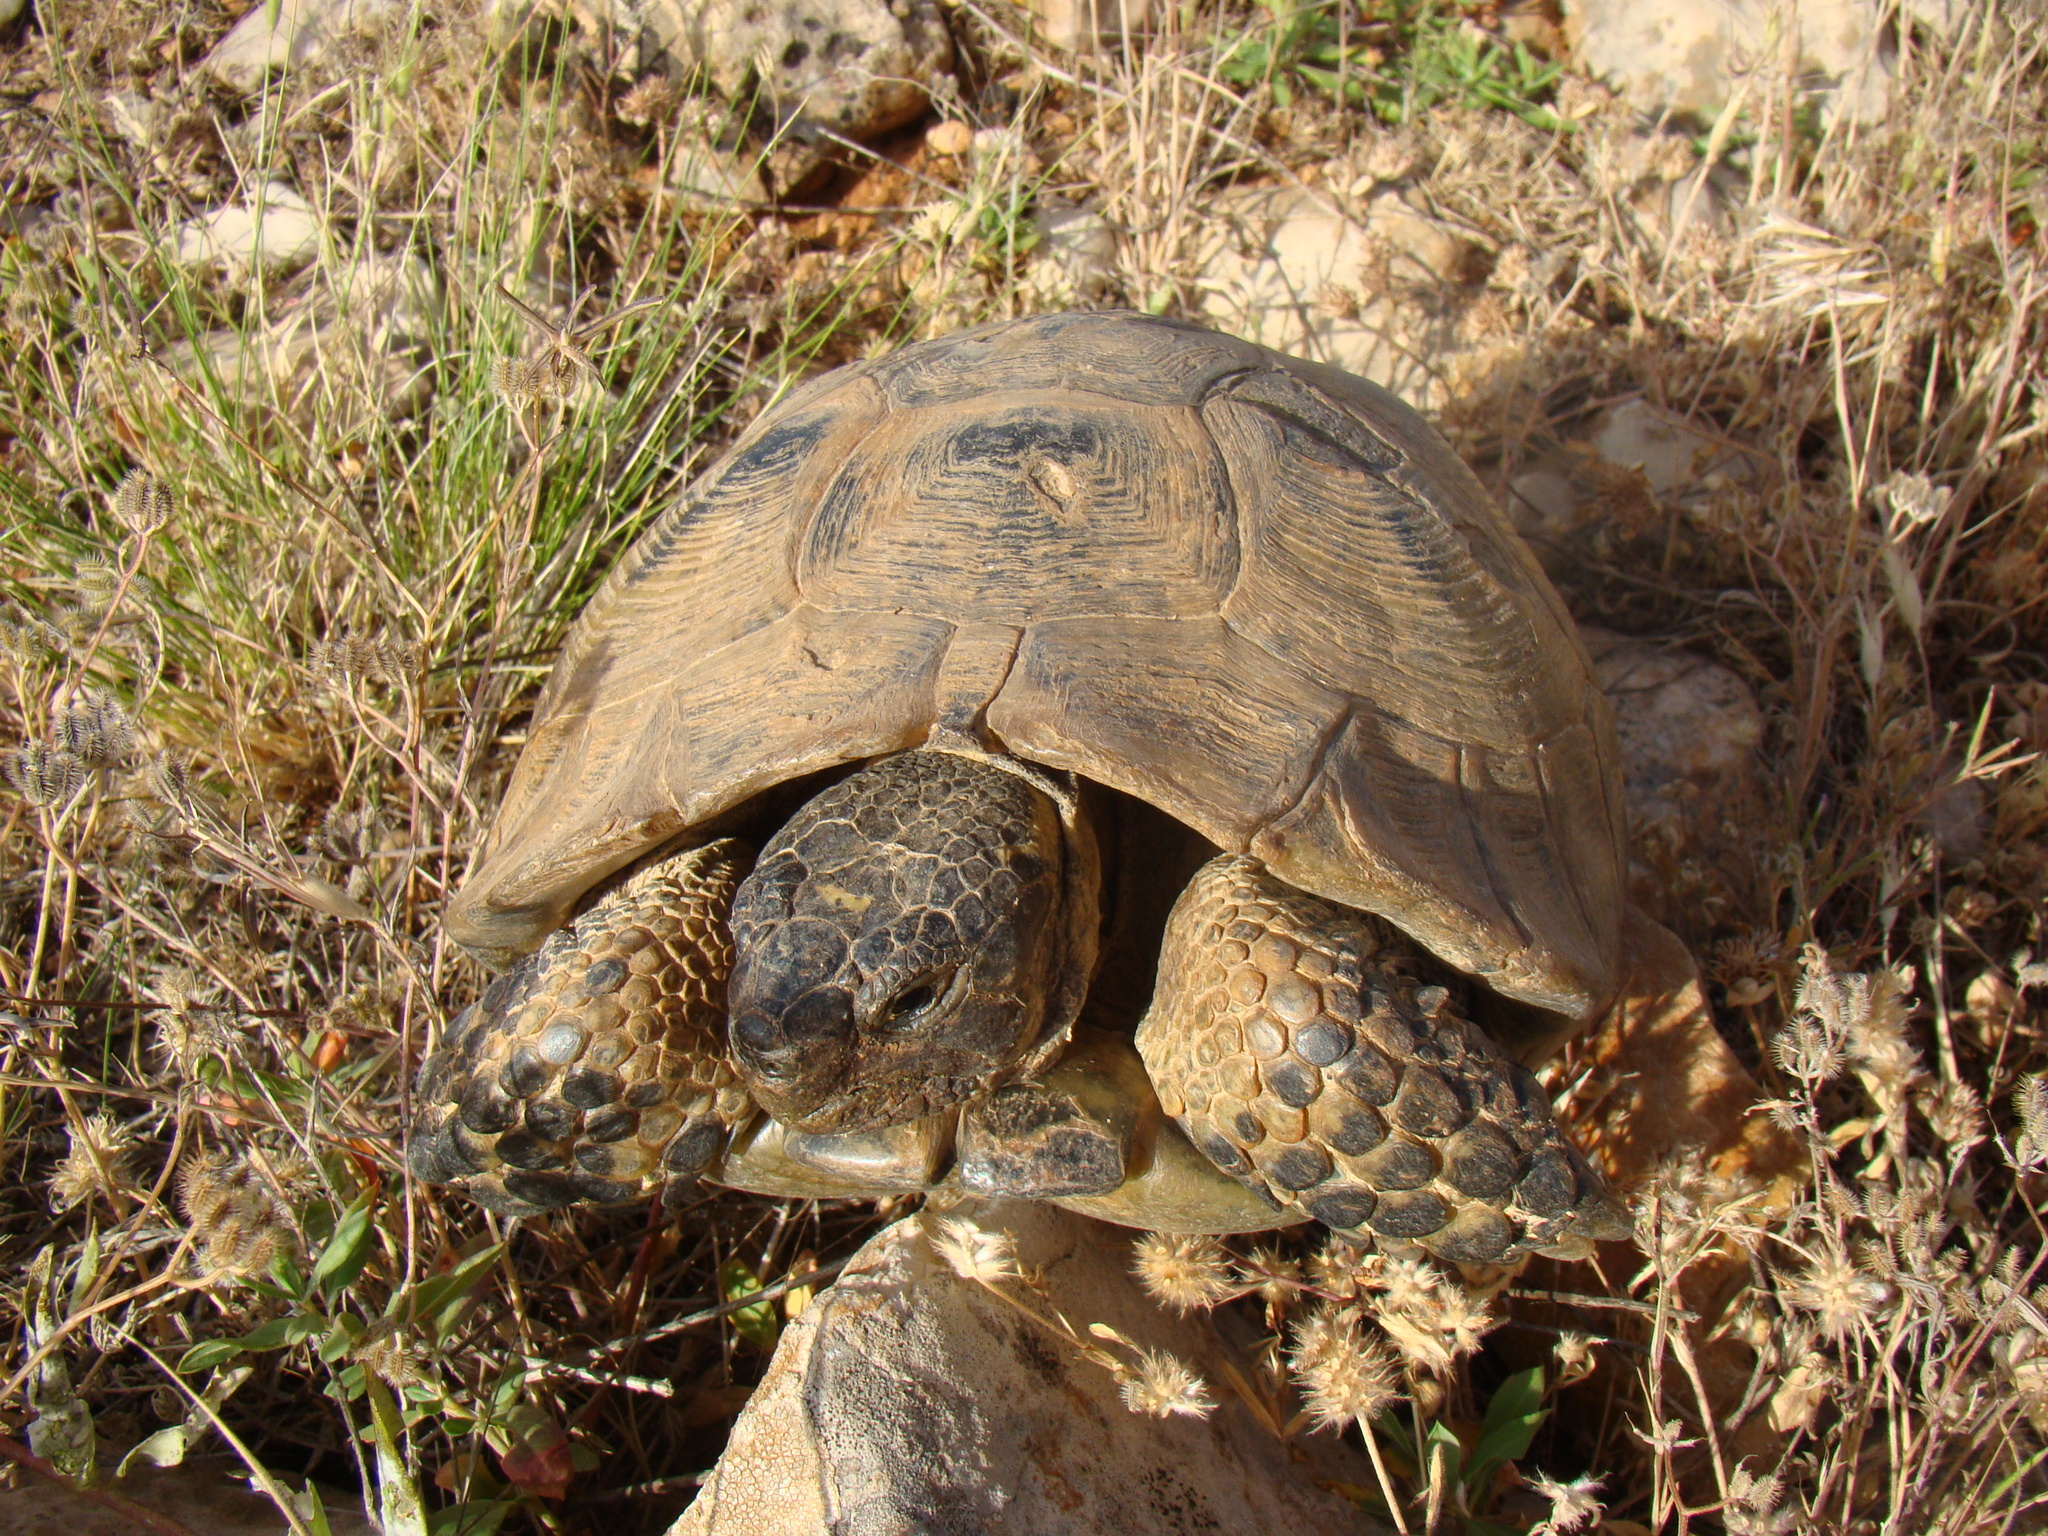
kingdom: Animalia
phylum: Chordata
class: Testudines
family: Testudinidae
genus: Testudo
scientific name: Testudo graeca
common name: Common tortoise
